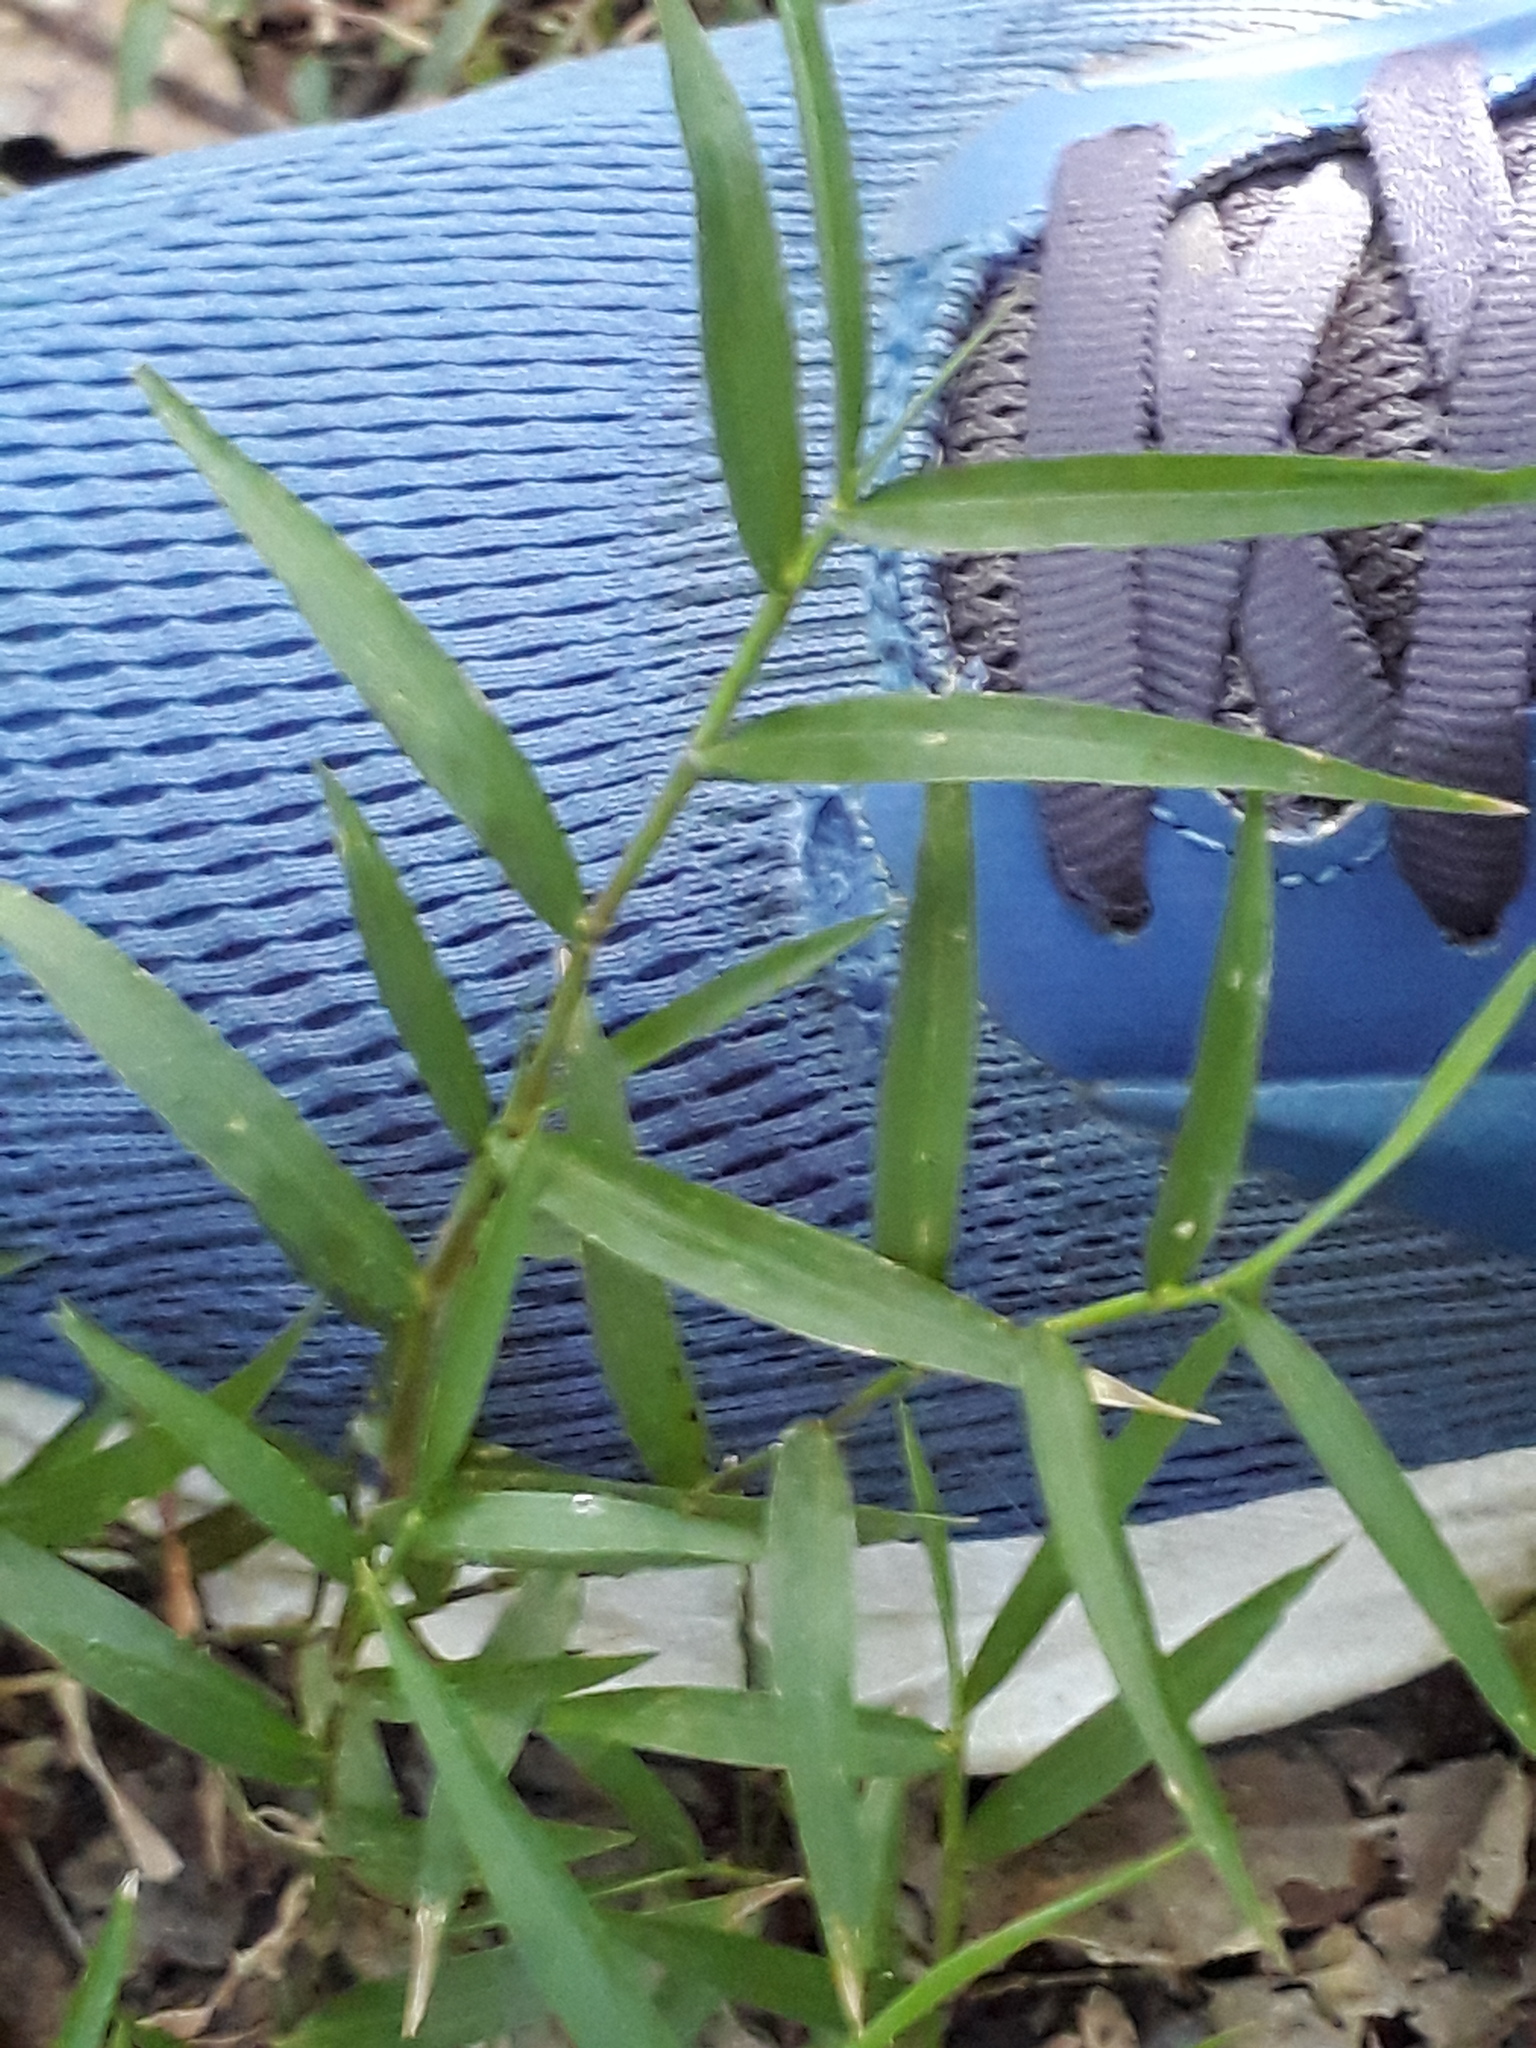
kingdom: Plantae
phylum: Tracheophyta
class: Liliopsida
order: Poales
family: Poaceae
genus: Oplismenus
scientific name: Oplismenus hirtellus
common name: Basketgrass
